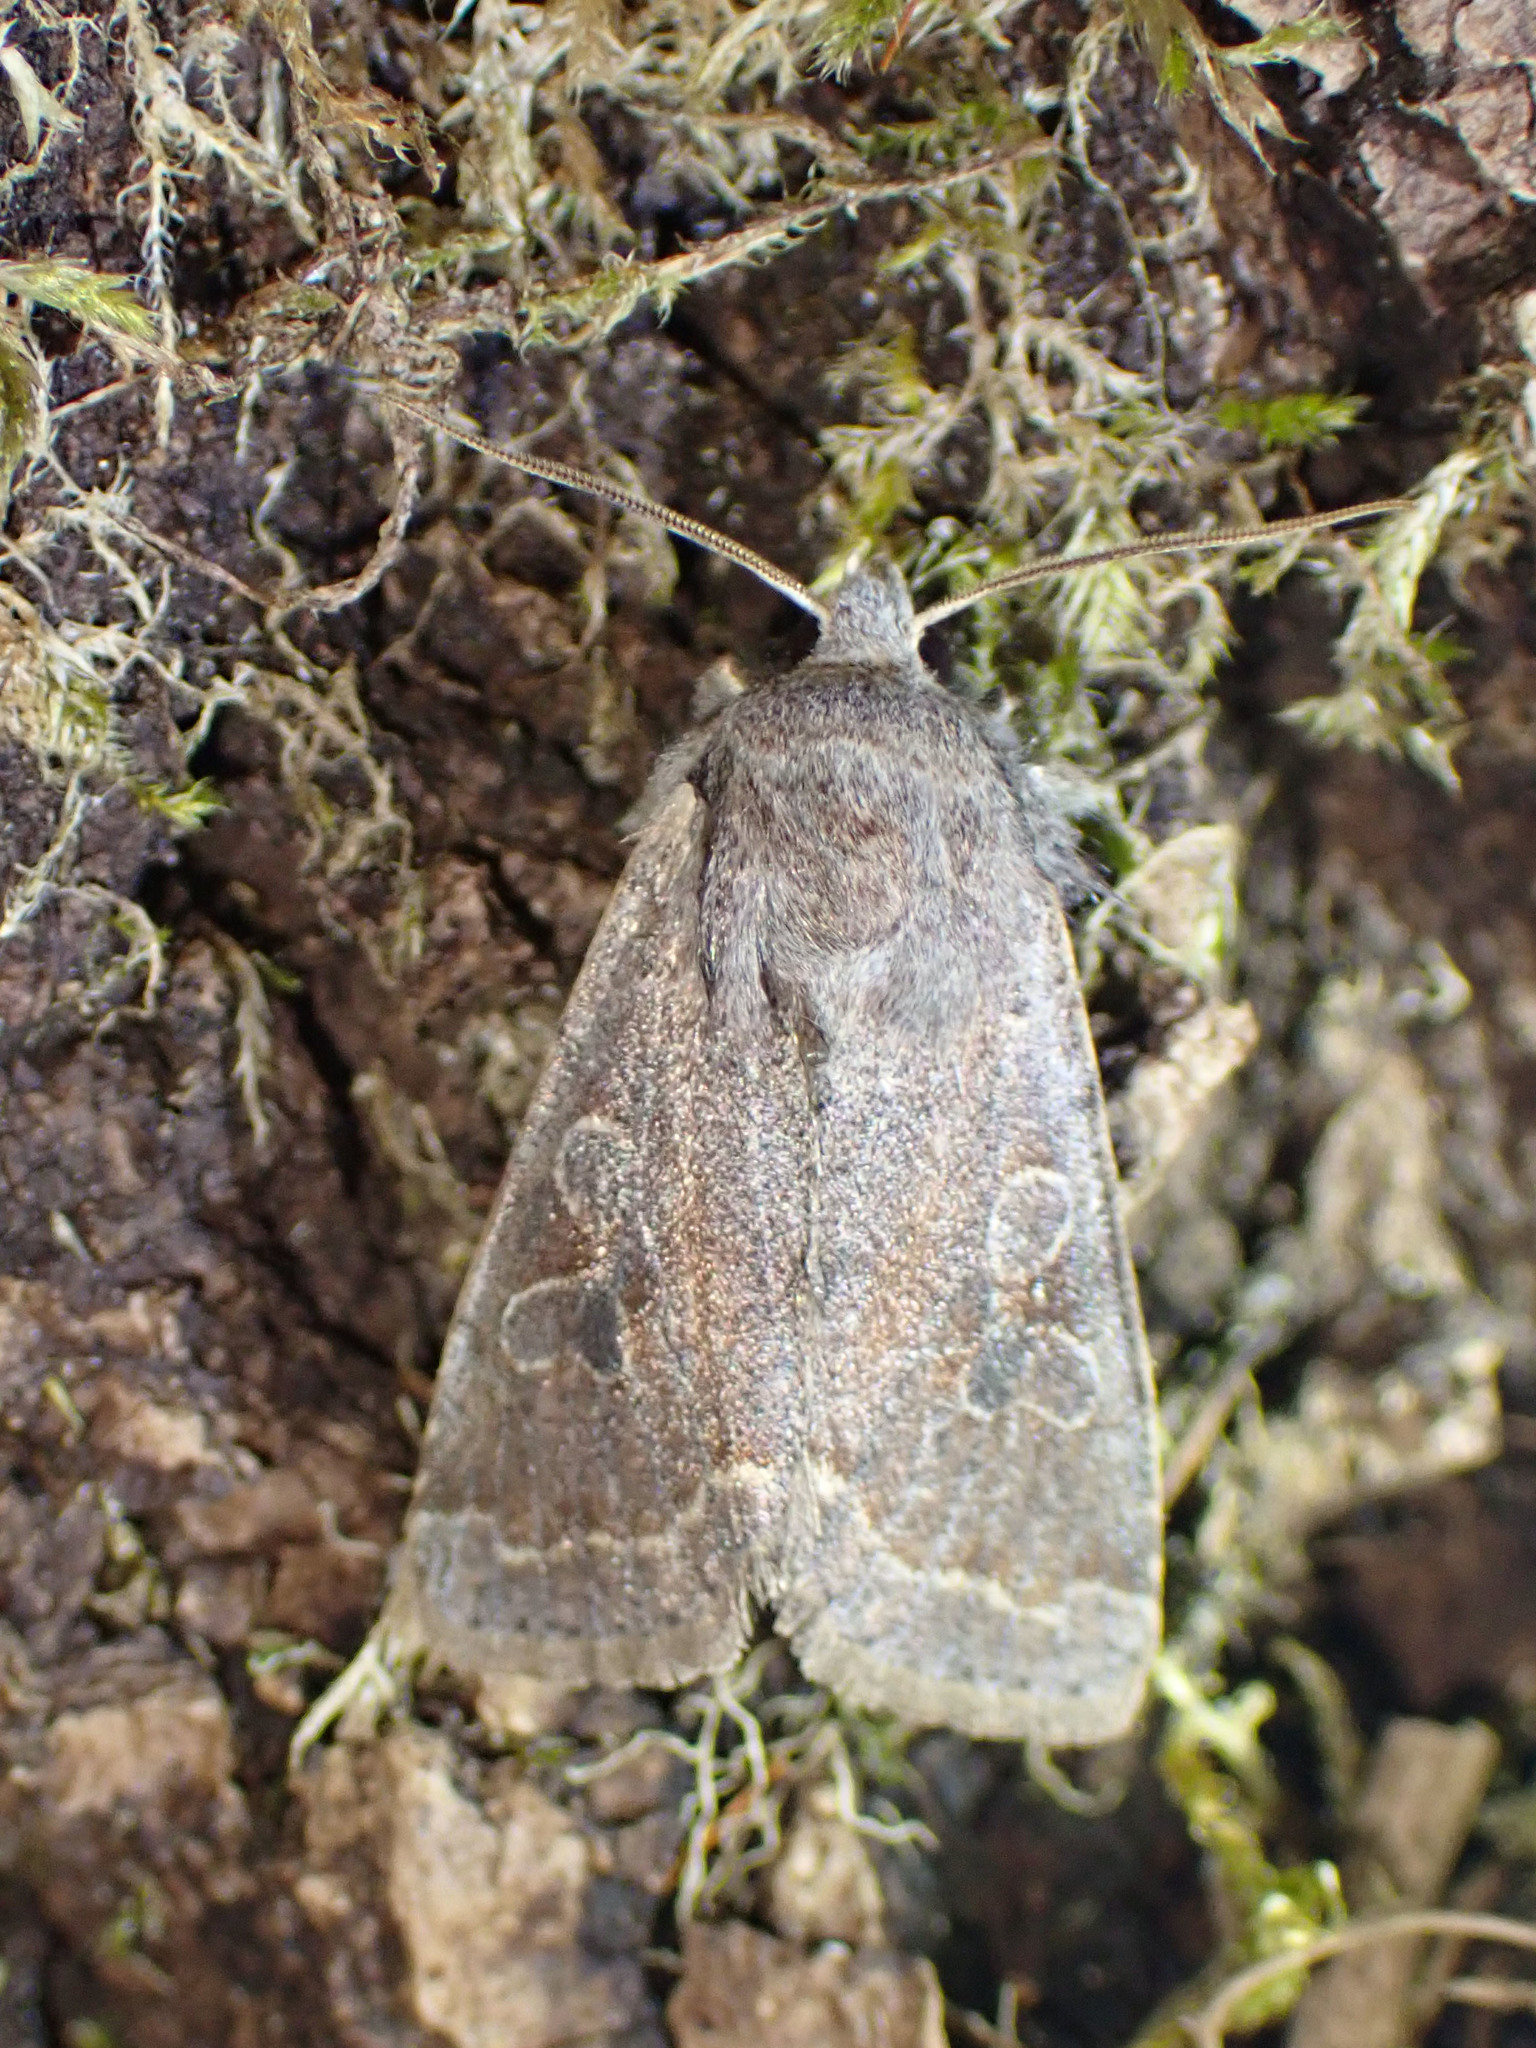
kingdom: Animalia
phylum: Arthropoda
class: Insecta
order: Lepidoptera
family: Noctuidae
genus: Orthosia
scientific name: Orthosia hibisci
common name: Green fruitworm
